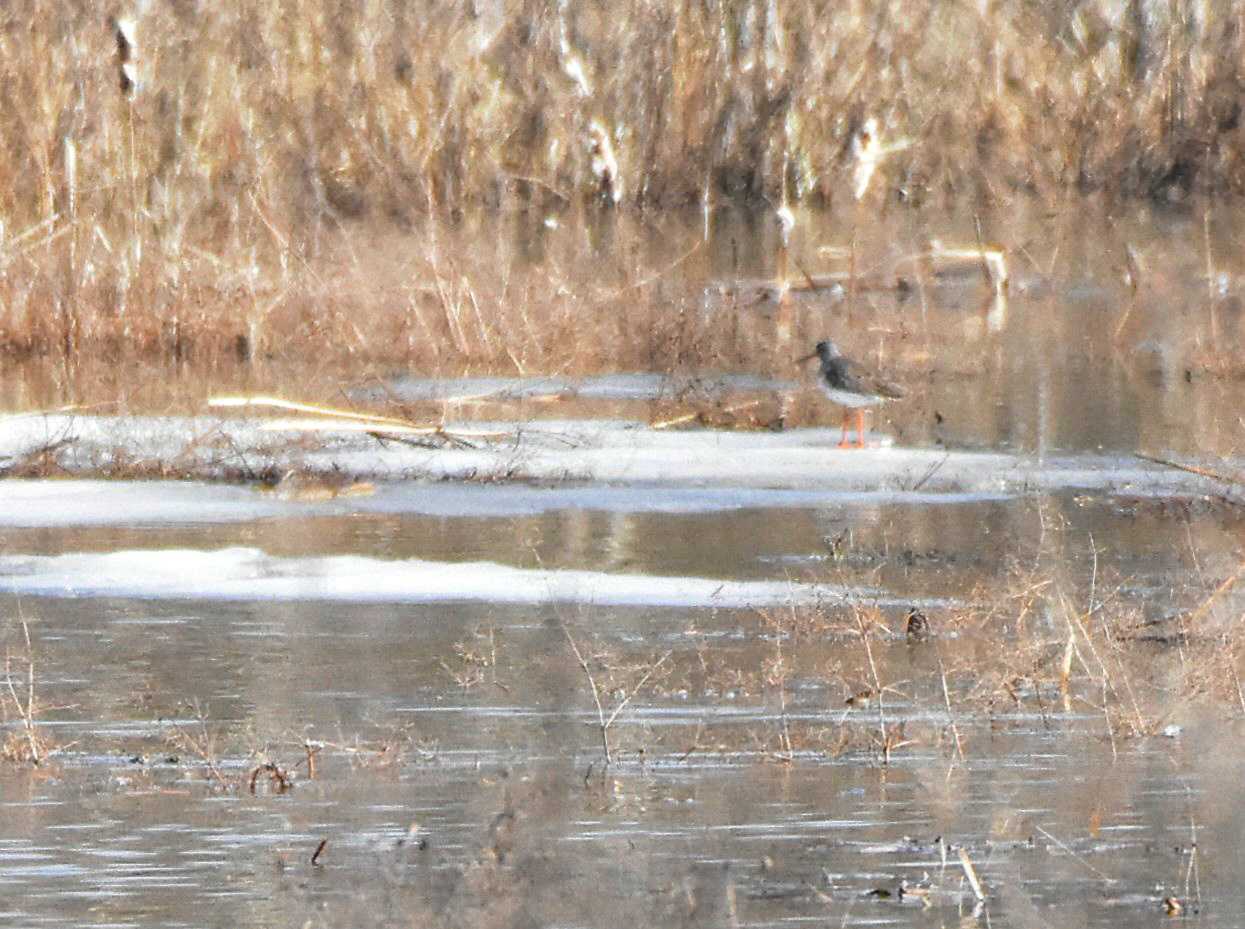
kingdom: Animalia
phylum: Chordata
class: Aves
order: Charadriiformes
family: Scolopacidae
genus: Tringa
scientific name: Tringa totanus
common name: Common redshank
